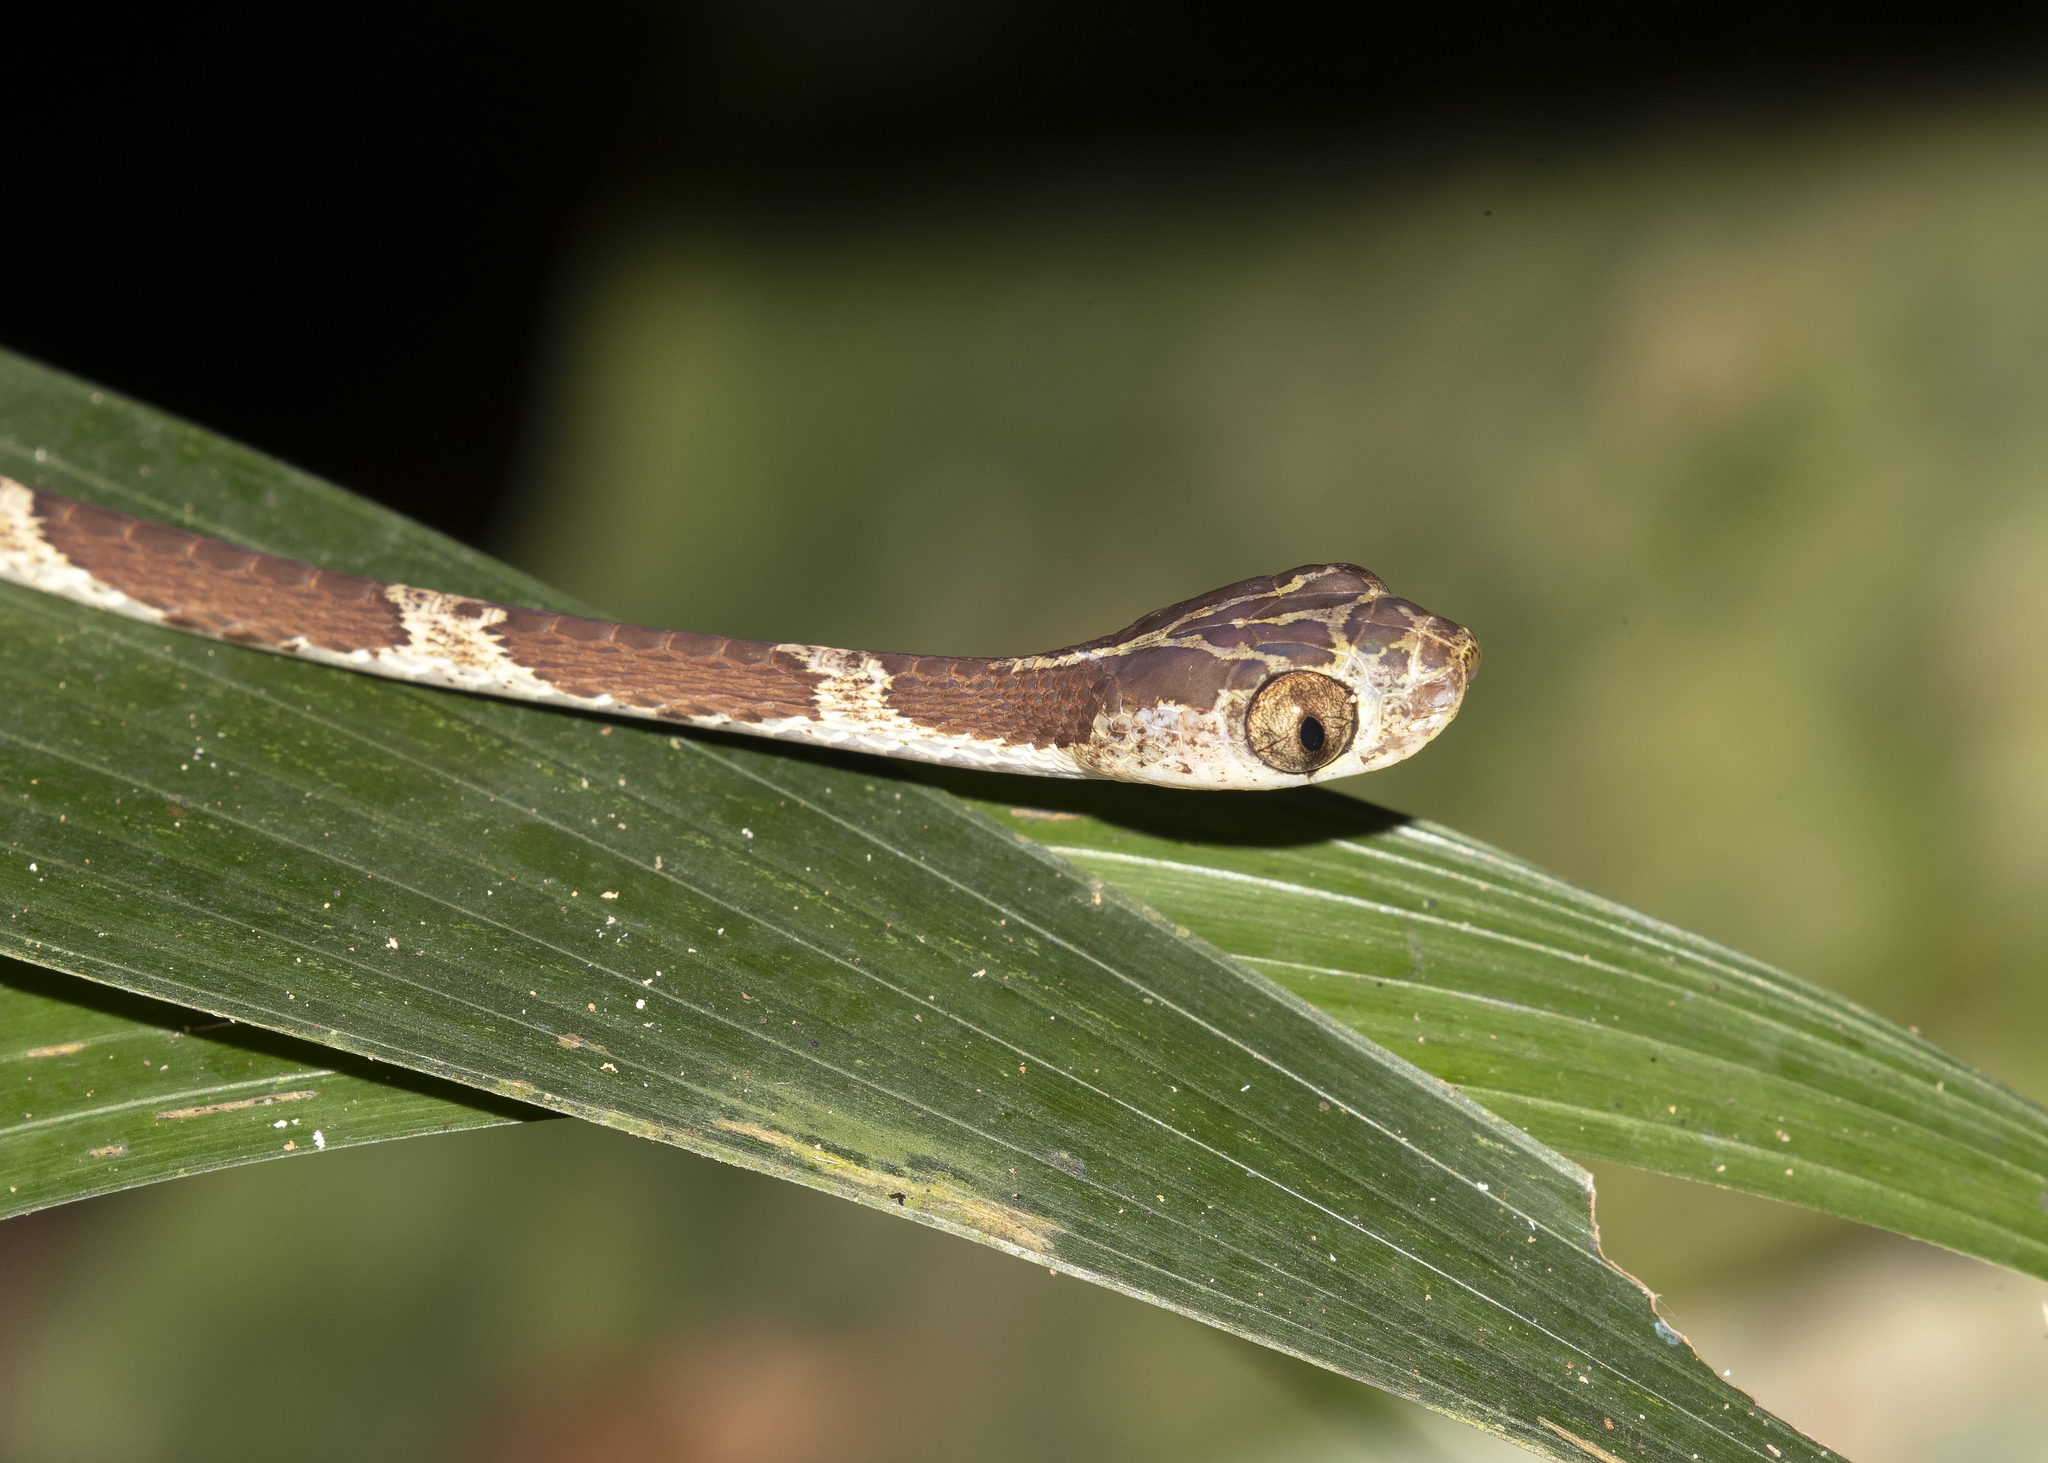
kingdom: Animalia
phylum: Chordata
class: Squamata
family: Colubridae
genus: Imantodes
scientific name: Imantodes cenchoa
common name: Blunthead tree snake
